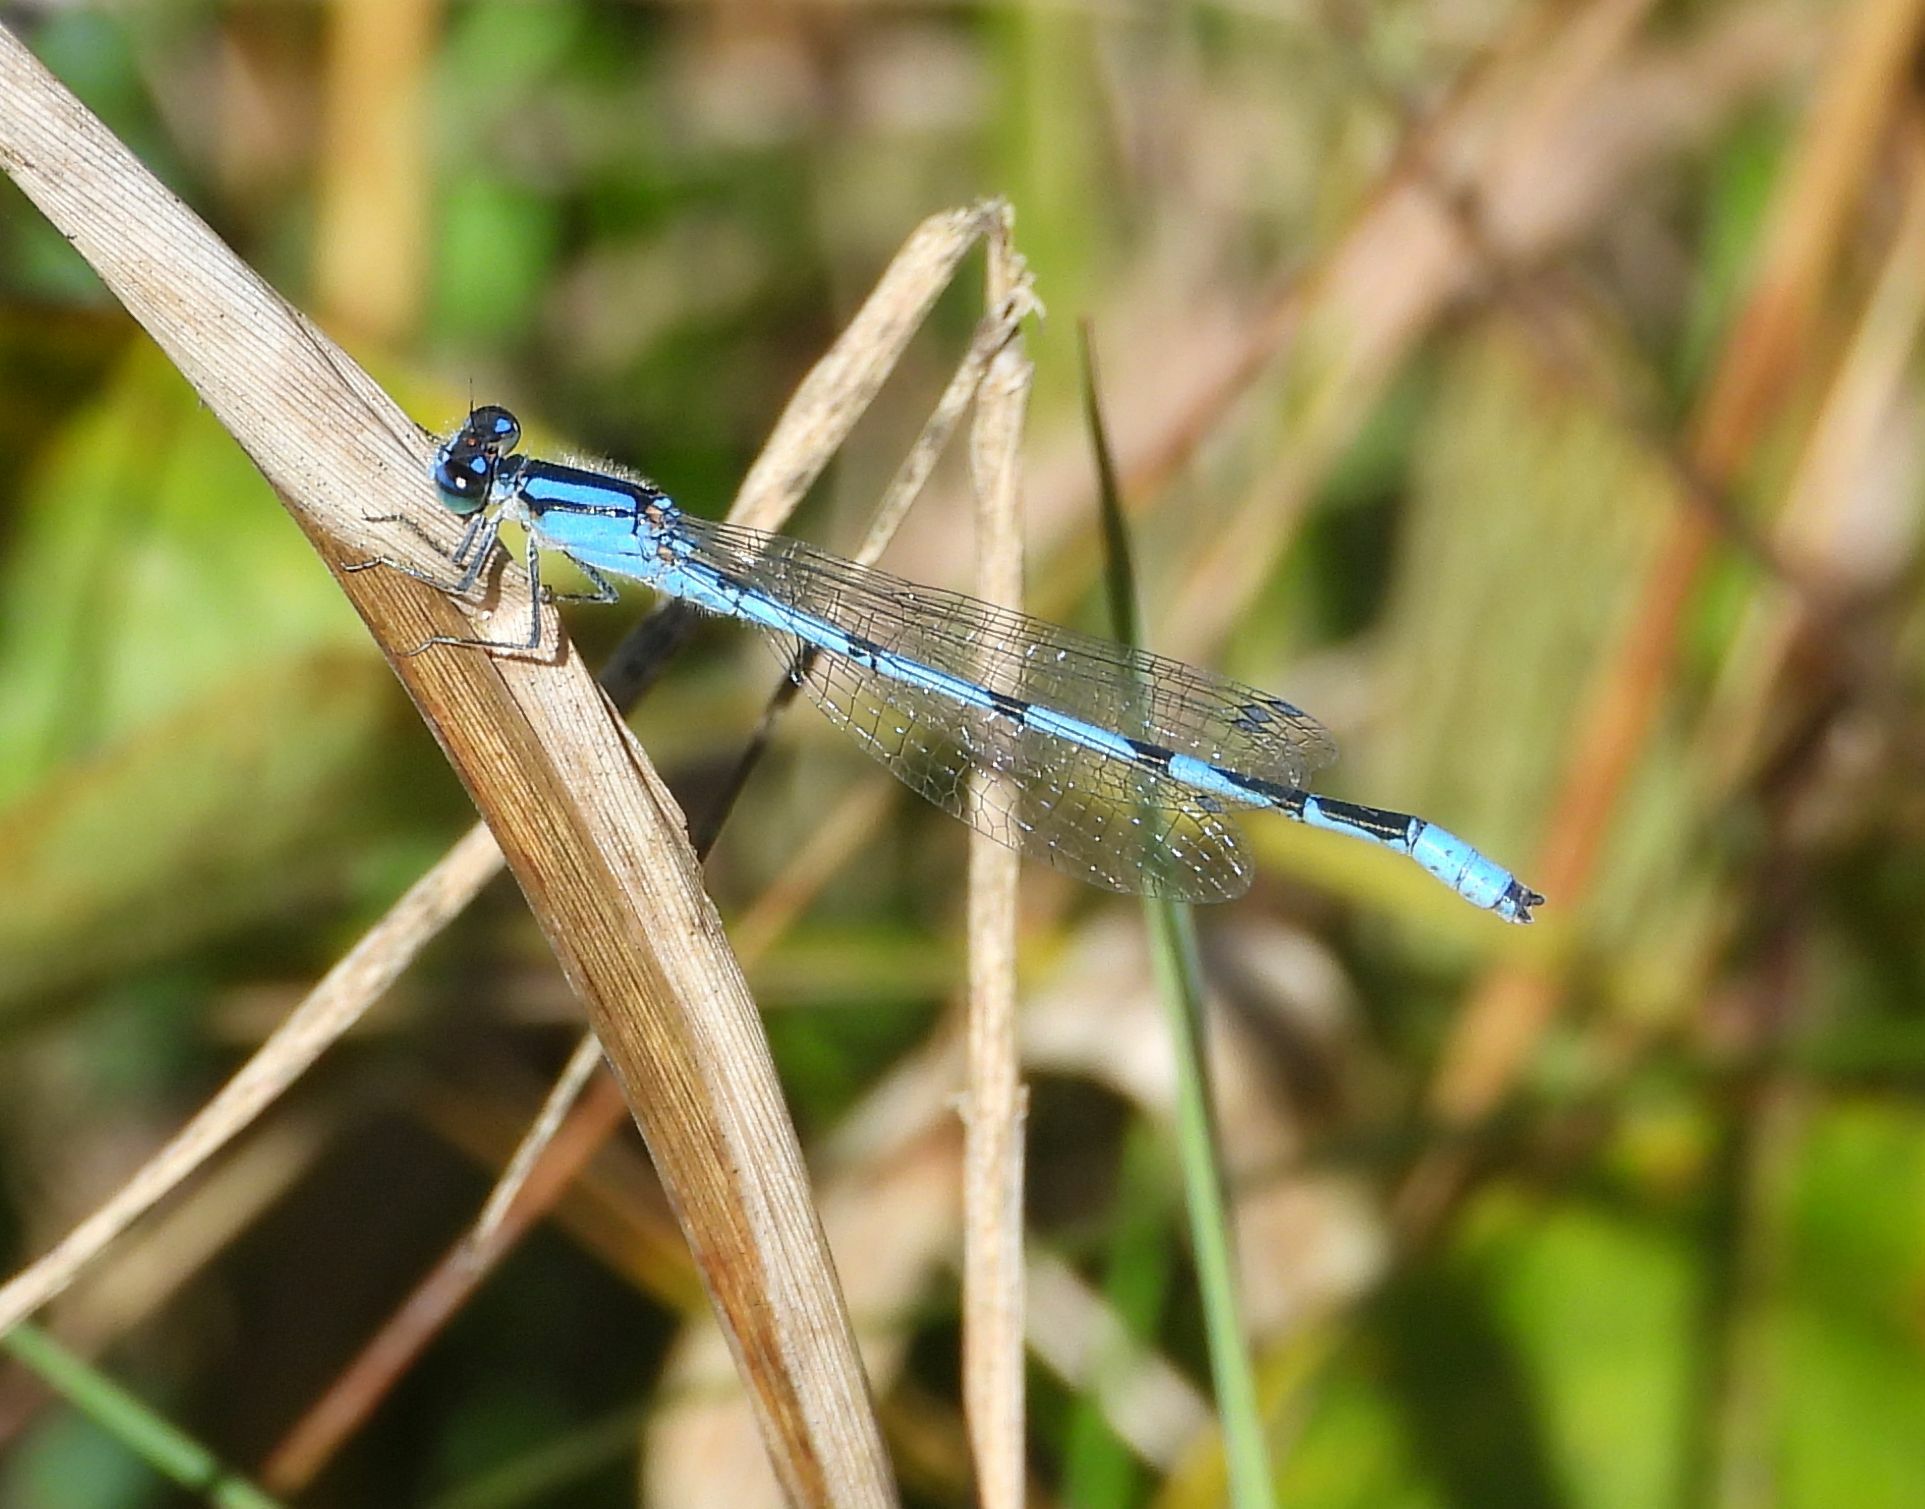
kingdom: Animalia
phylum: Arthropoda
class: Insecta
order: Odonata
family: Coenagrionidae
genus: Enallagma
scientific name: Enallagma civile
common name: Damselfly
